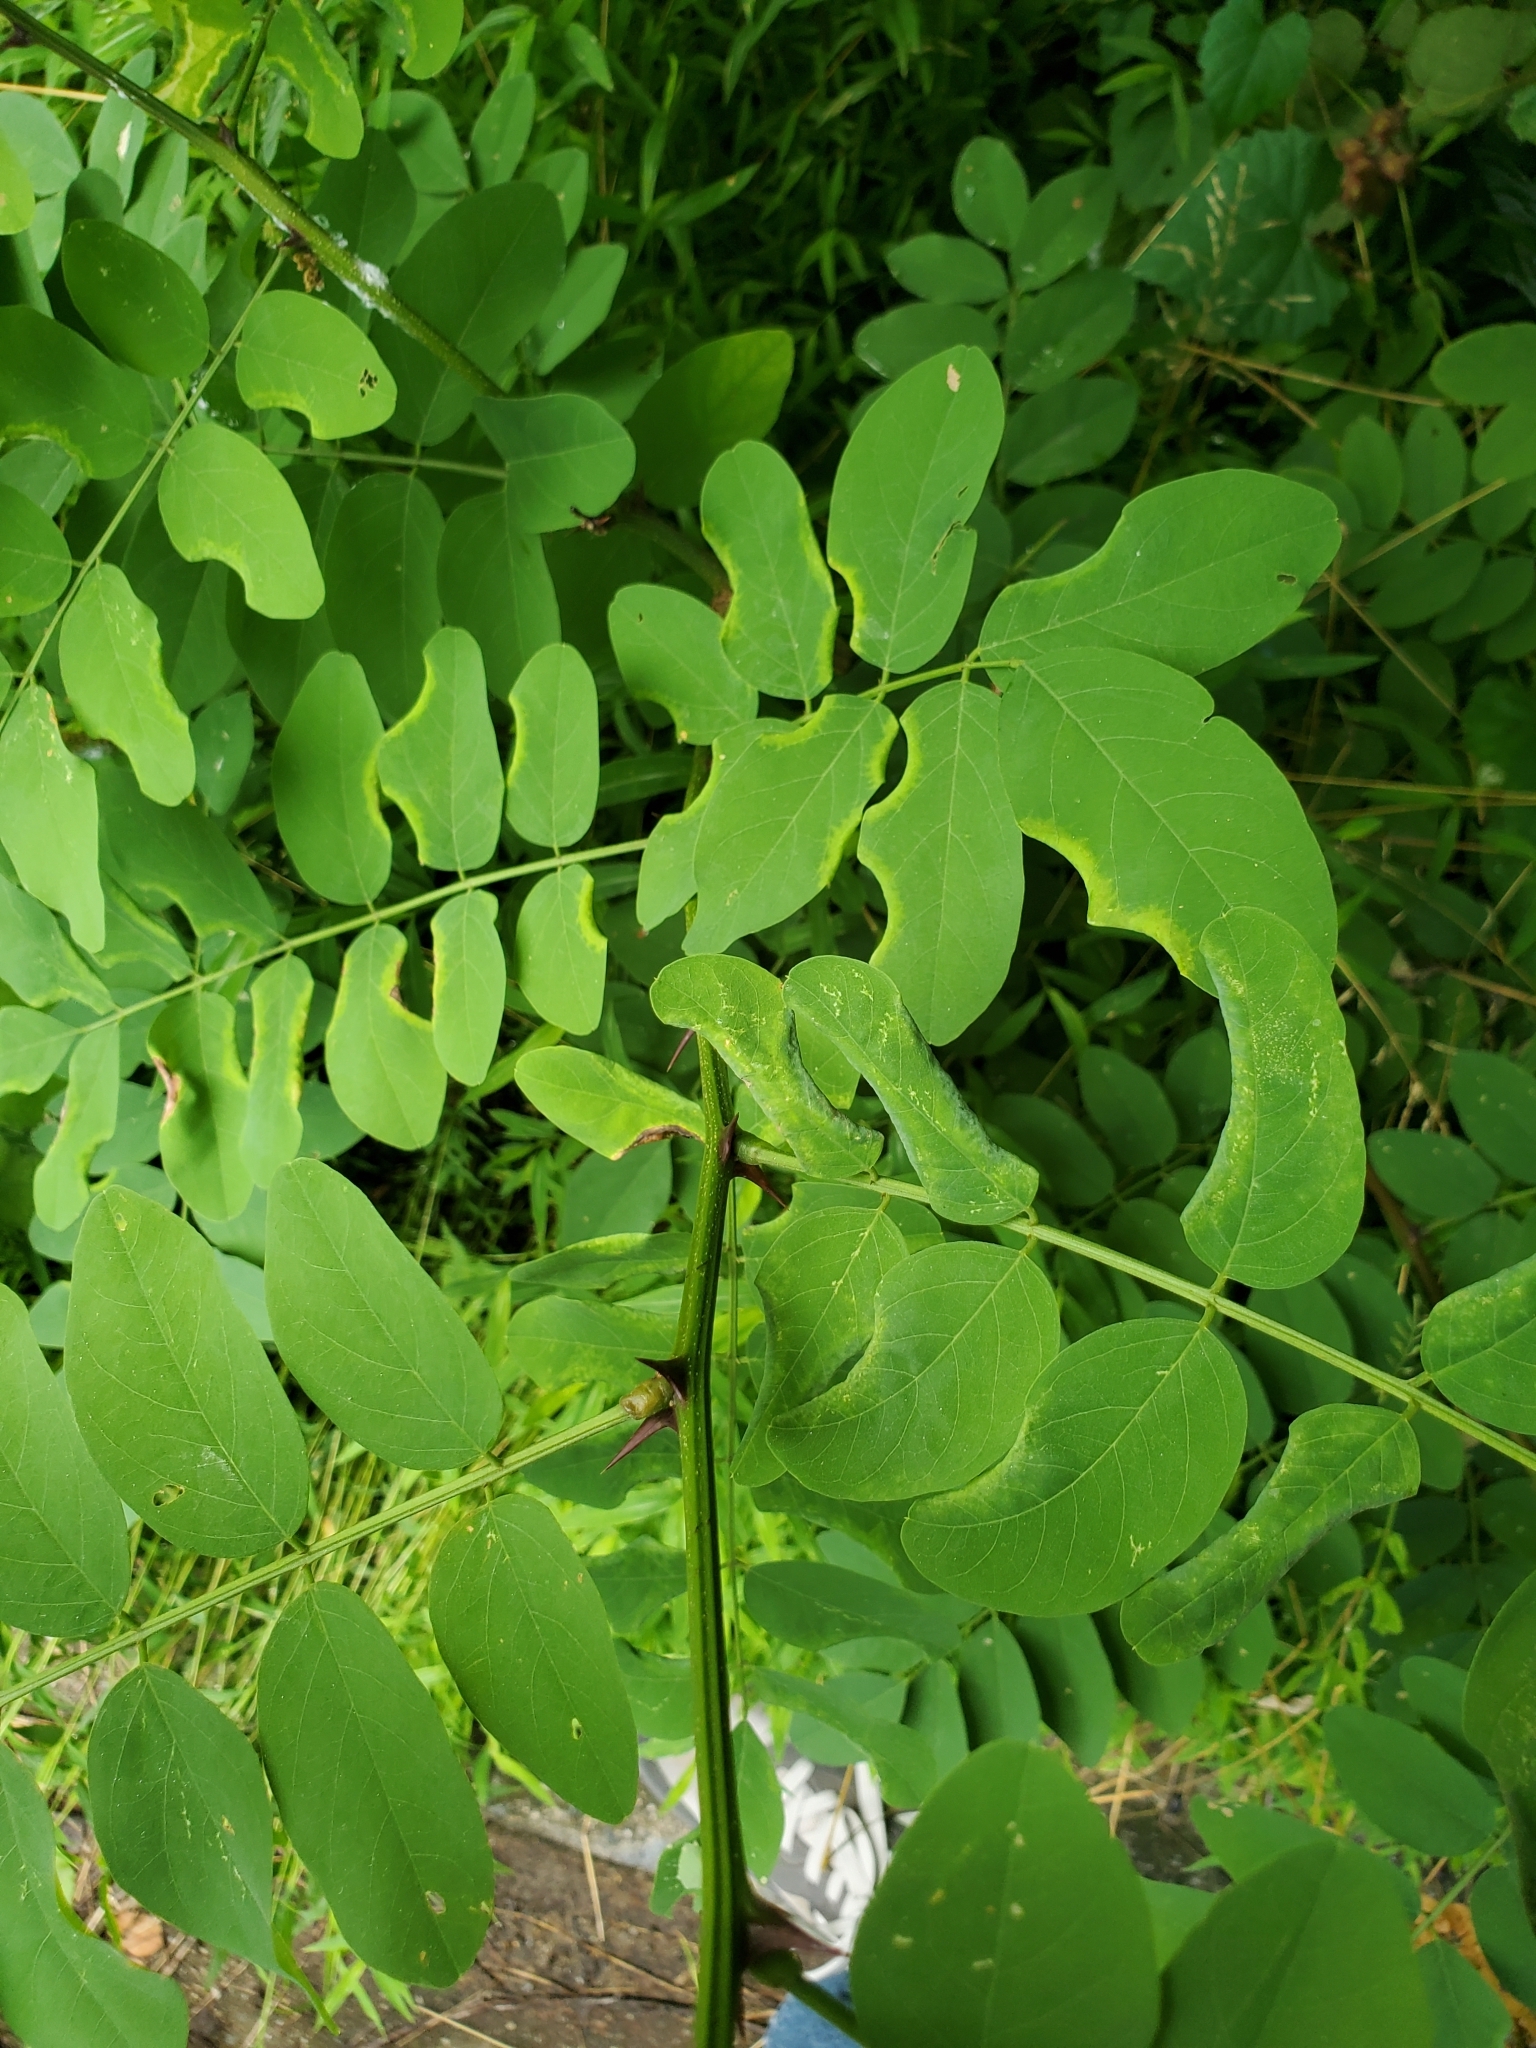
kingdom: Plantae
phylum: Tracheophyta
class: Magnoliopsida
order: Fabales
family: Fabaceae
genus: Robinia
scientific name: Robinia pseudoacacia
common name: Black locust
